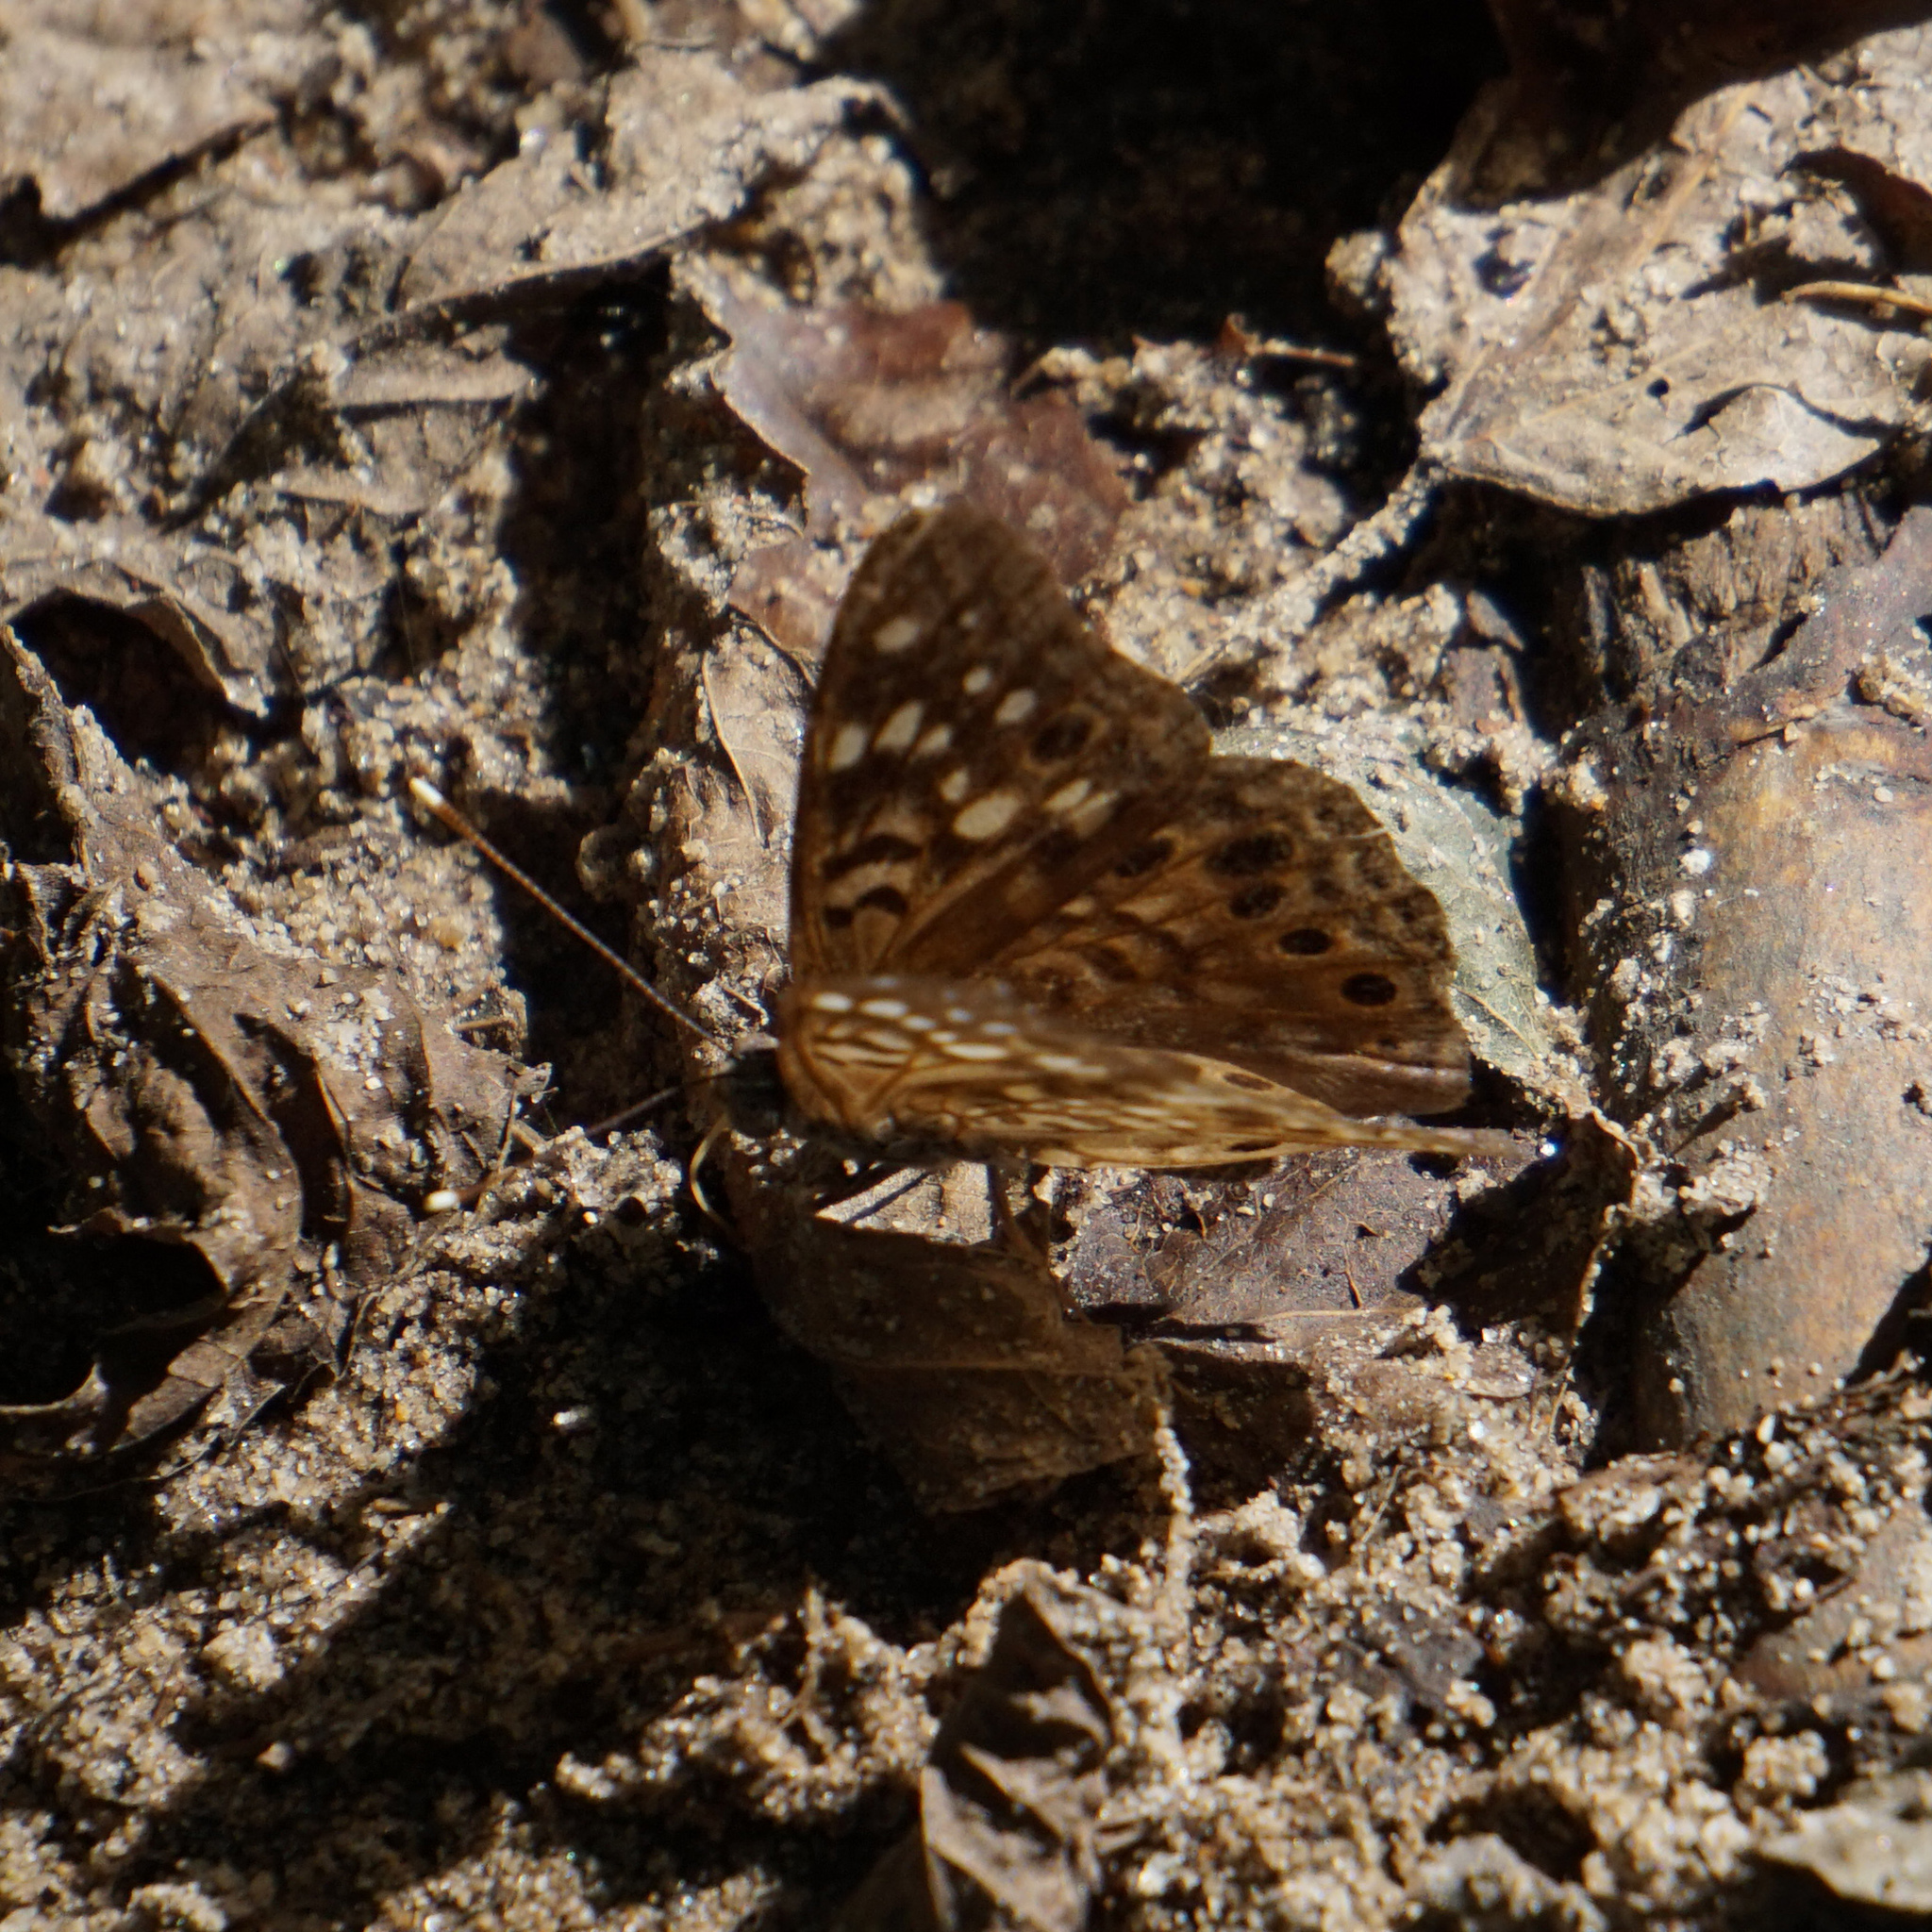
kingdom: Animalia
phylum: Arthropoda
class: Insecta
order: Lepidoptera
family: Nymphalidae
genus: Asterocampa
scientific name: Asterocampa celtis
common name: Hackberry emperor
